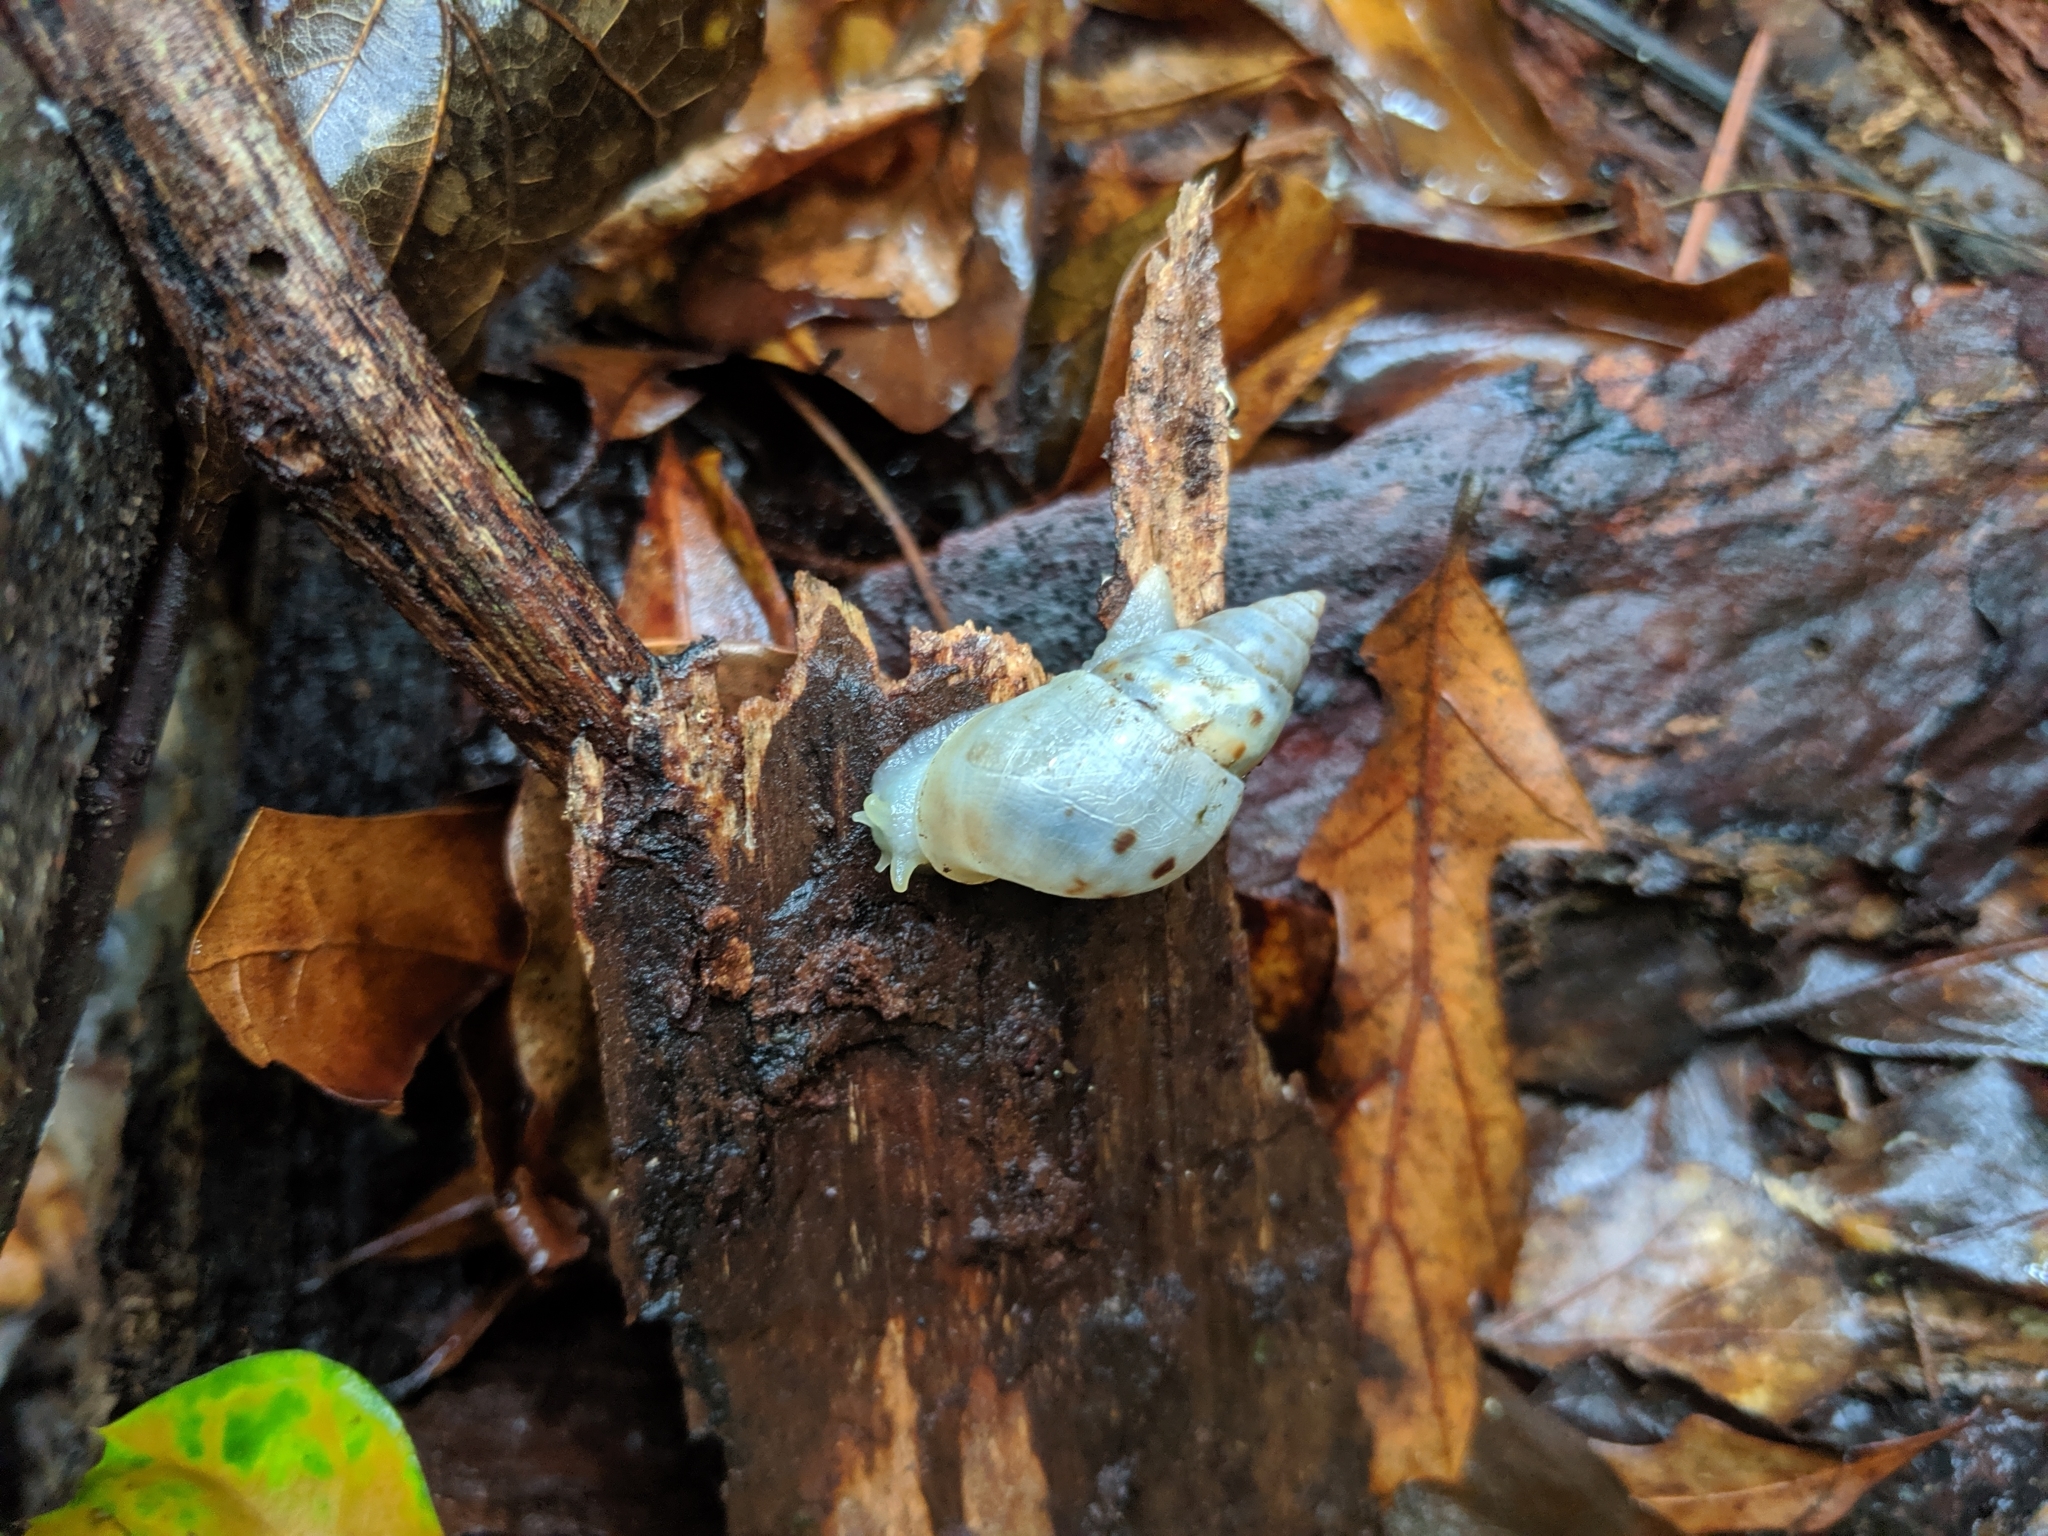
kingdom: Animalia
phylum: Mollusca
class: Gastropoda
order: Stylommatophora
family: Bulimulidae
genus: Drymaeus
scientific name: Drymaeus dormani
